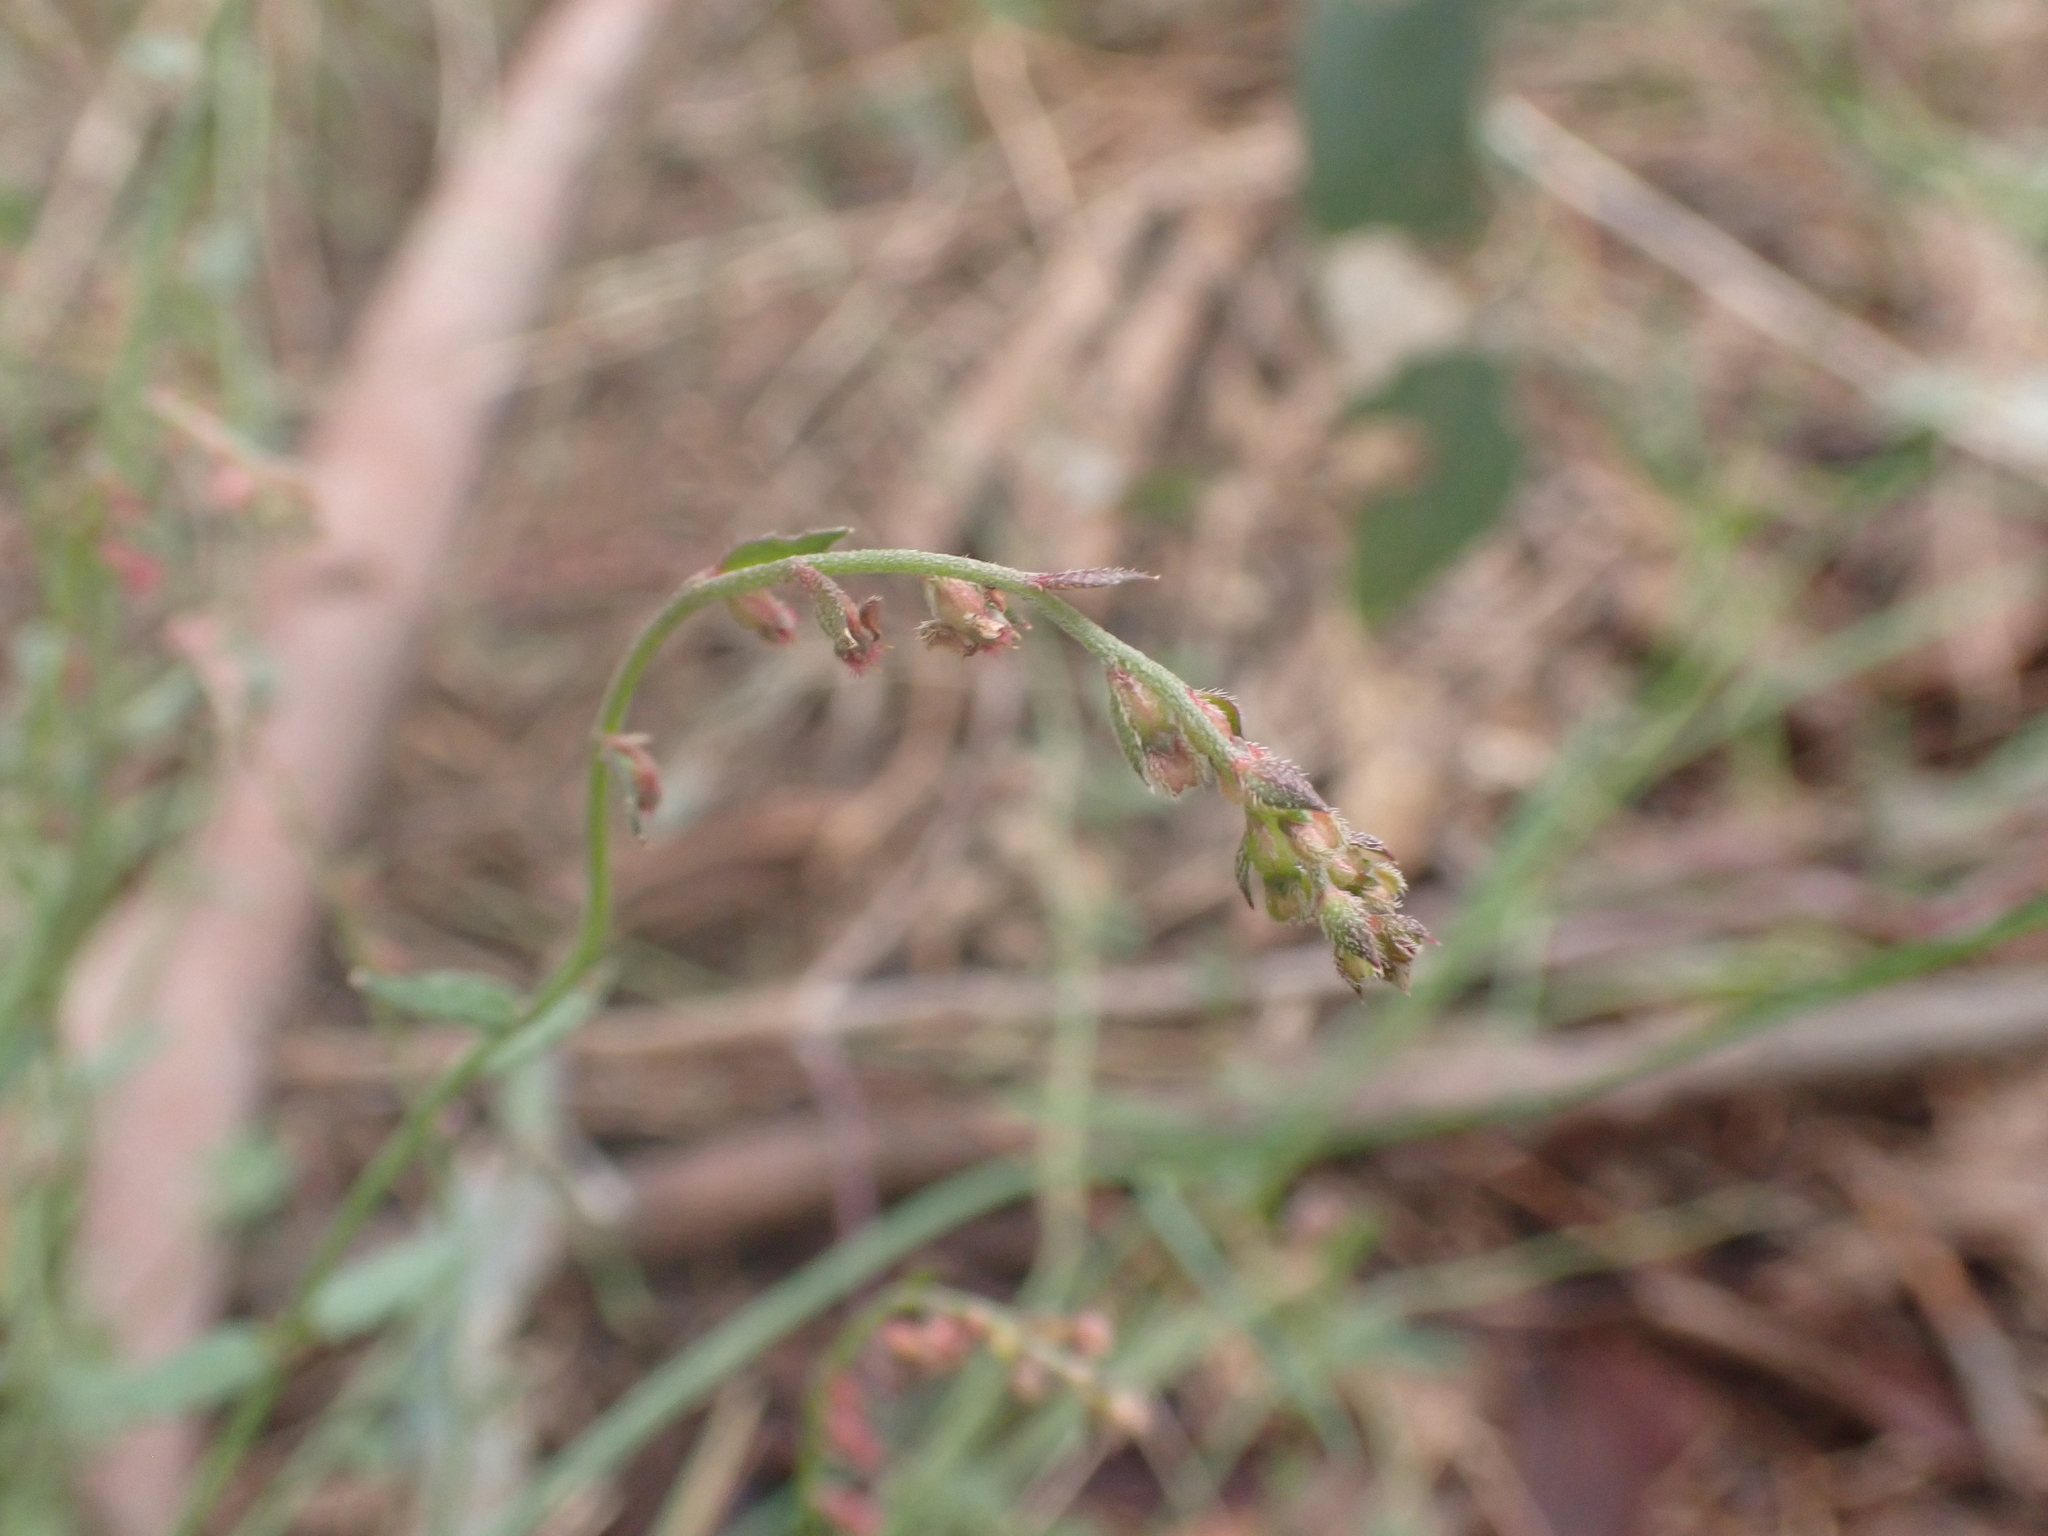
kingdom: Plantae
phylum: Tracheophyta
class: Magnoliopsida
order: Saxifragales
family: Haloragaceae
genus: Gonocarpus
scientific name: Gonocarpus tetragynus
